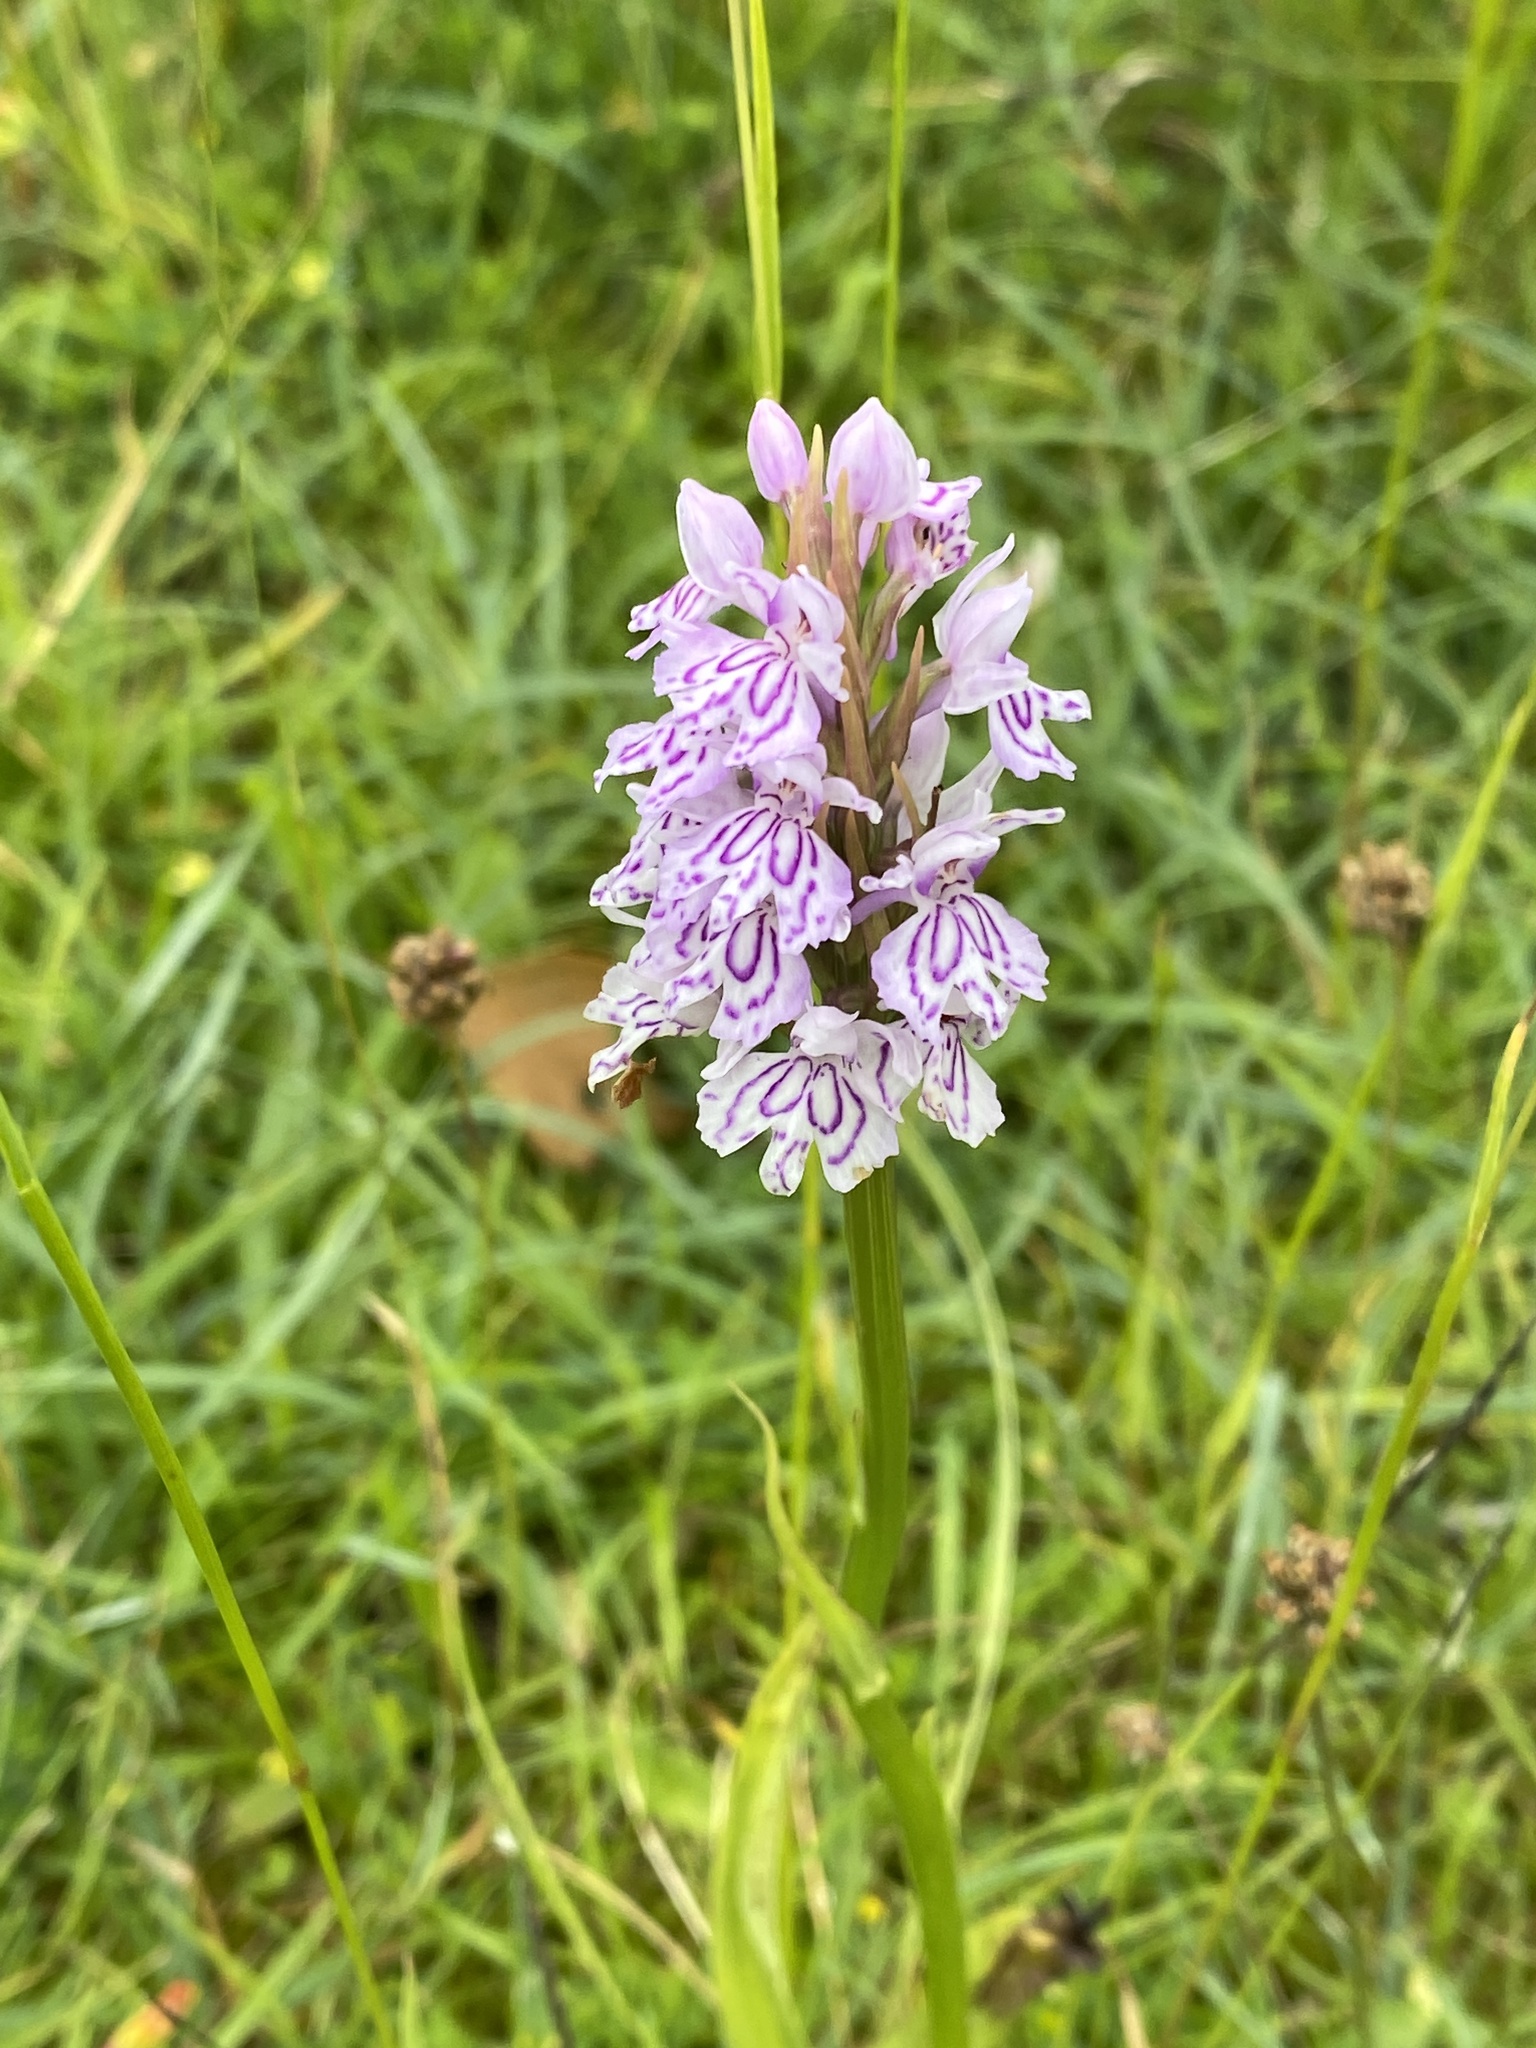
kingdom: Plantae
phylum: Tracheophyta
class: Liliopsida
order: Asparagales
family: Orchidaceae
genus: Dactylorhiza
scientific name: Dactylorhiza maculata
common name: Heath spotted-orchid
